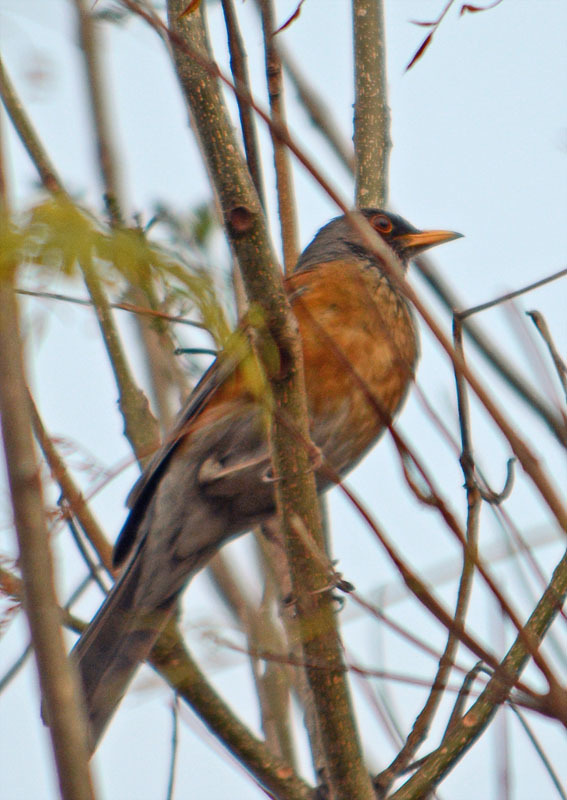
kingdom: Animalia
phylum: Chordata
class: Aves
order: Passeriformes
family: Turdidae
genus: Turdus
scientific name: Turdus rufopalliatus
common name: Rufous-backed robin
